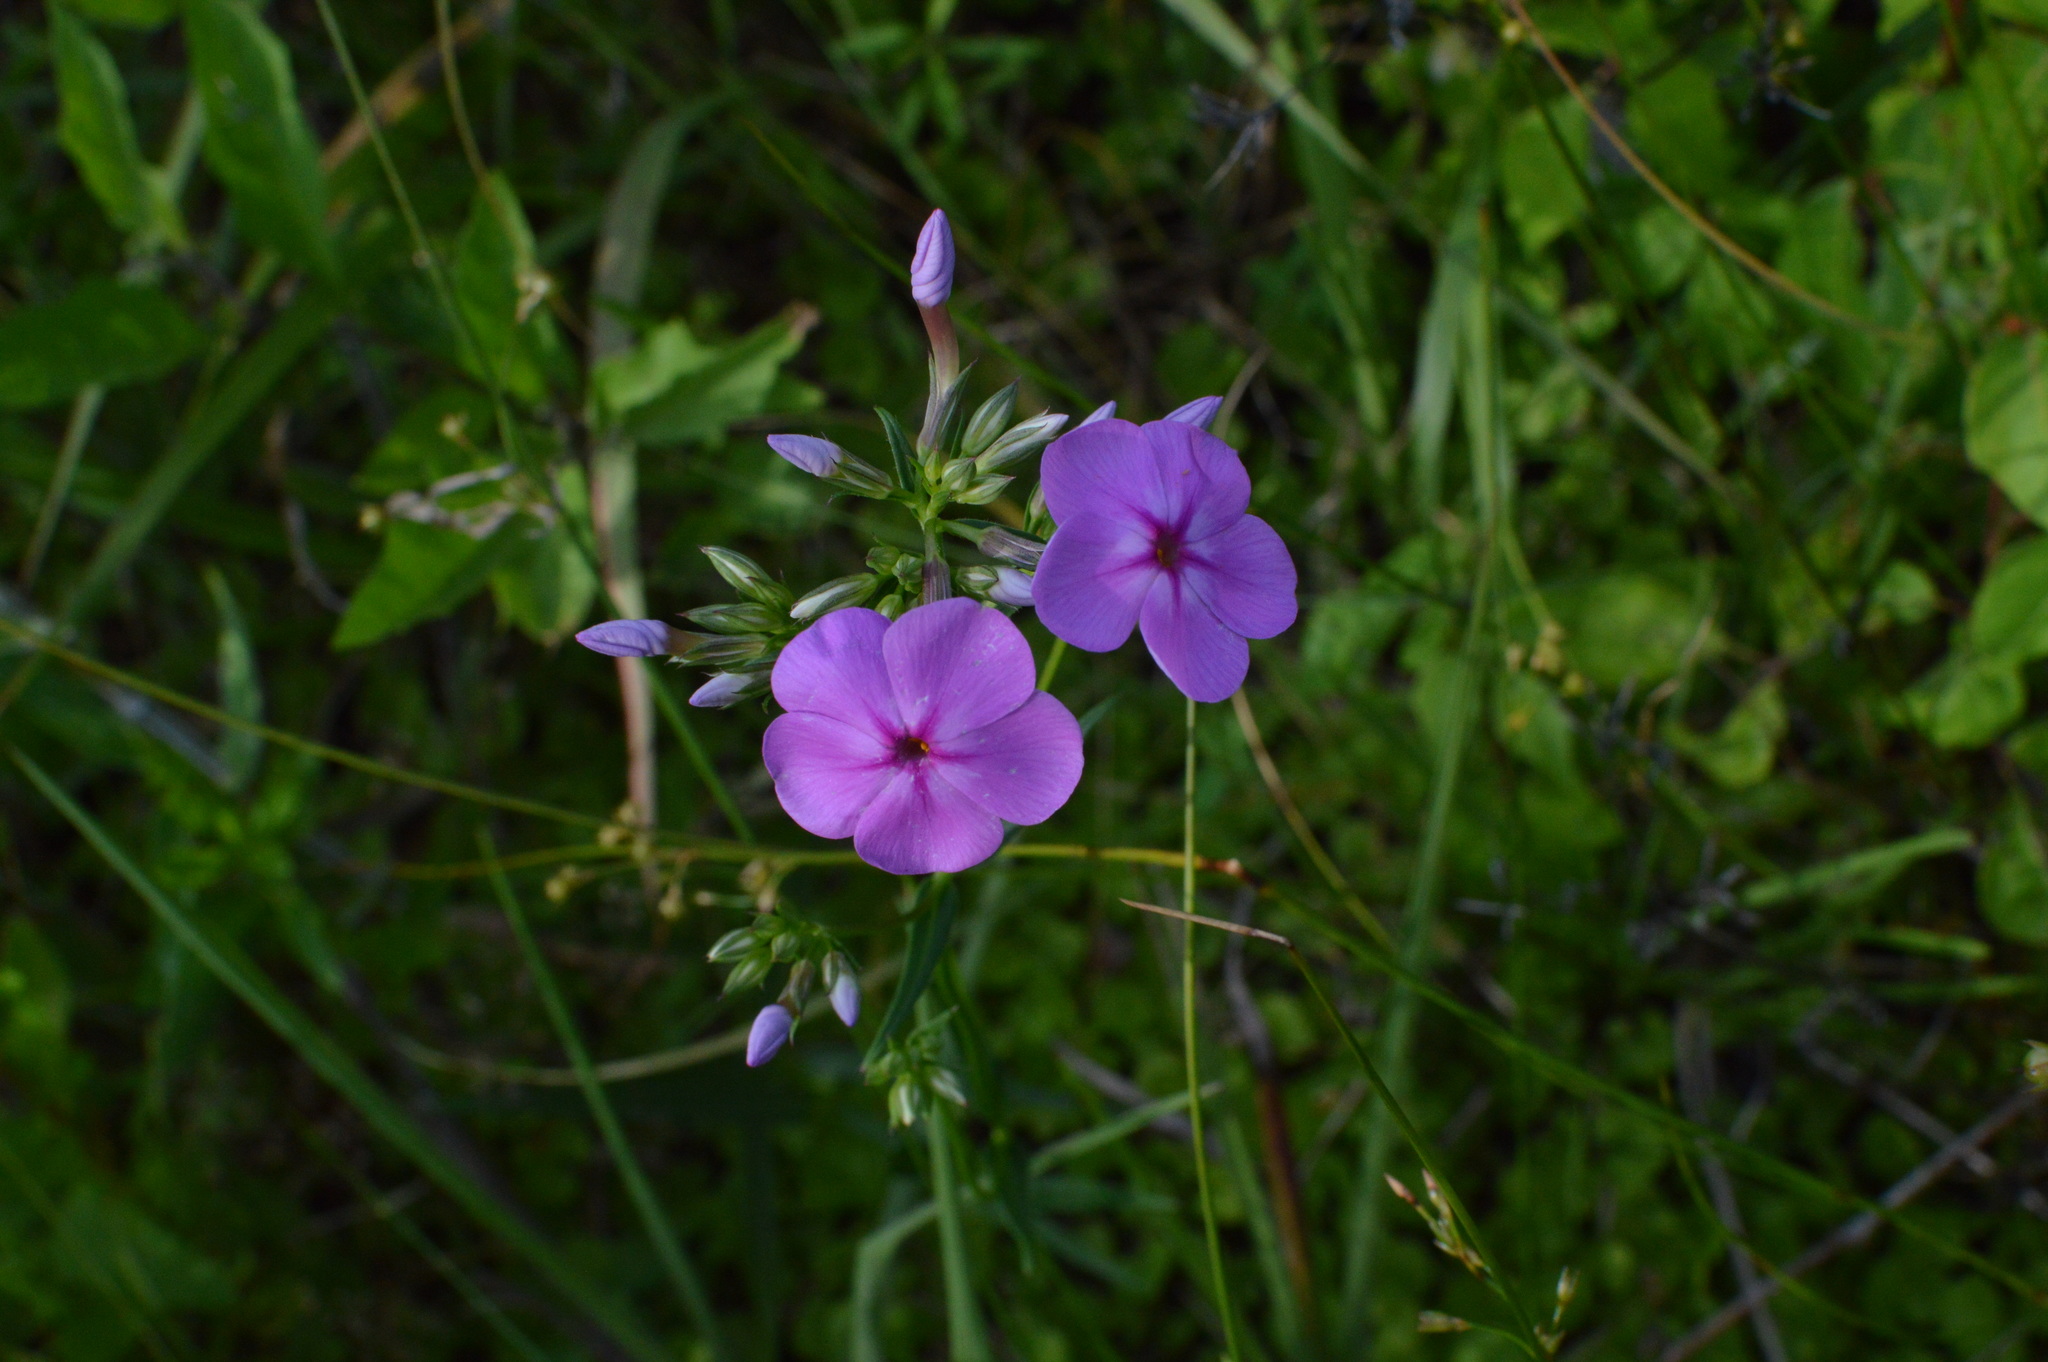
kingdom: Plantae
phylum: Tracheophyta
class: Magnoliopsida
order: Ericales
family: Polemoniaceae
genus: Phlox
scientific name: Phlox carolina
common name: Thick-leaf phlox
